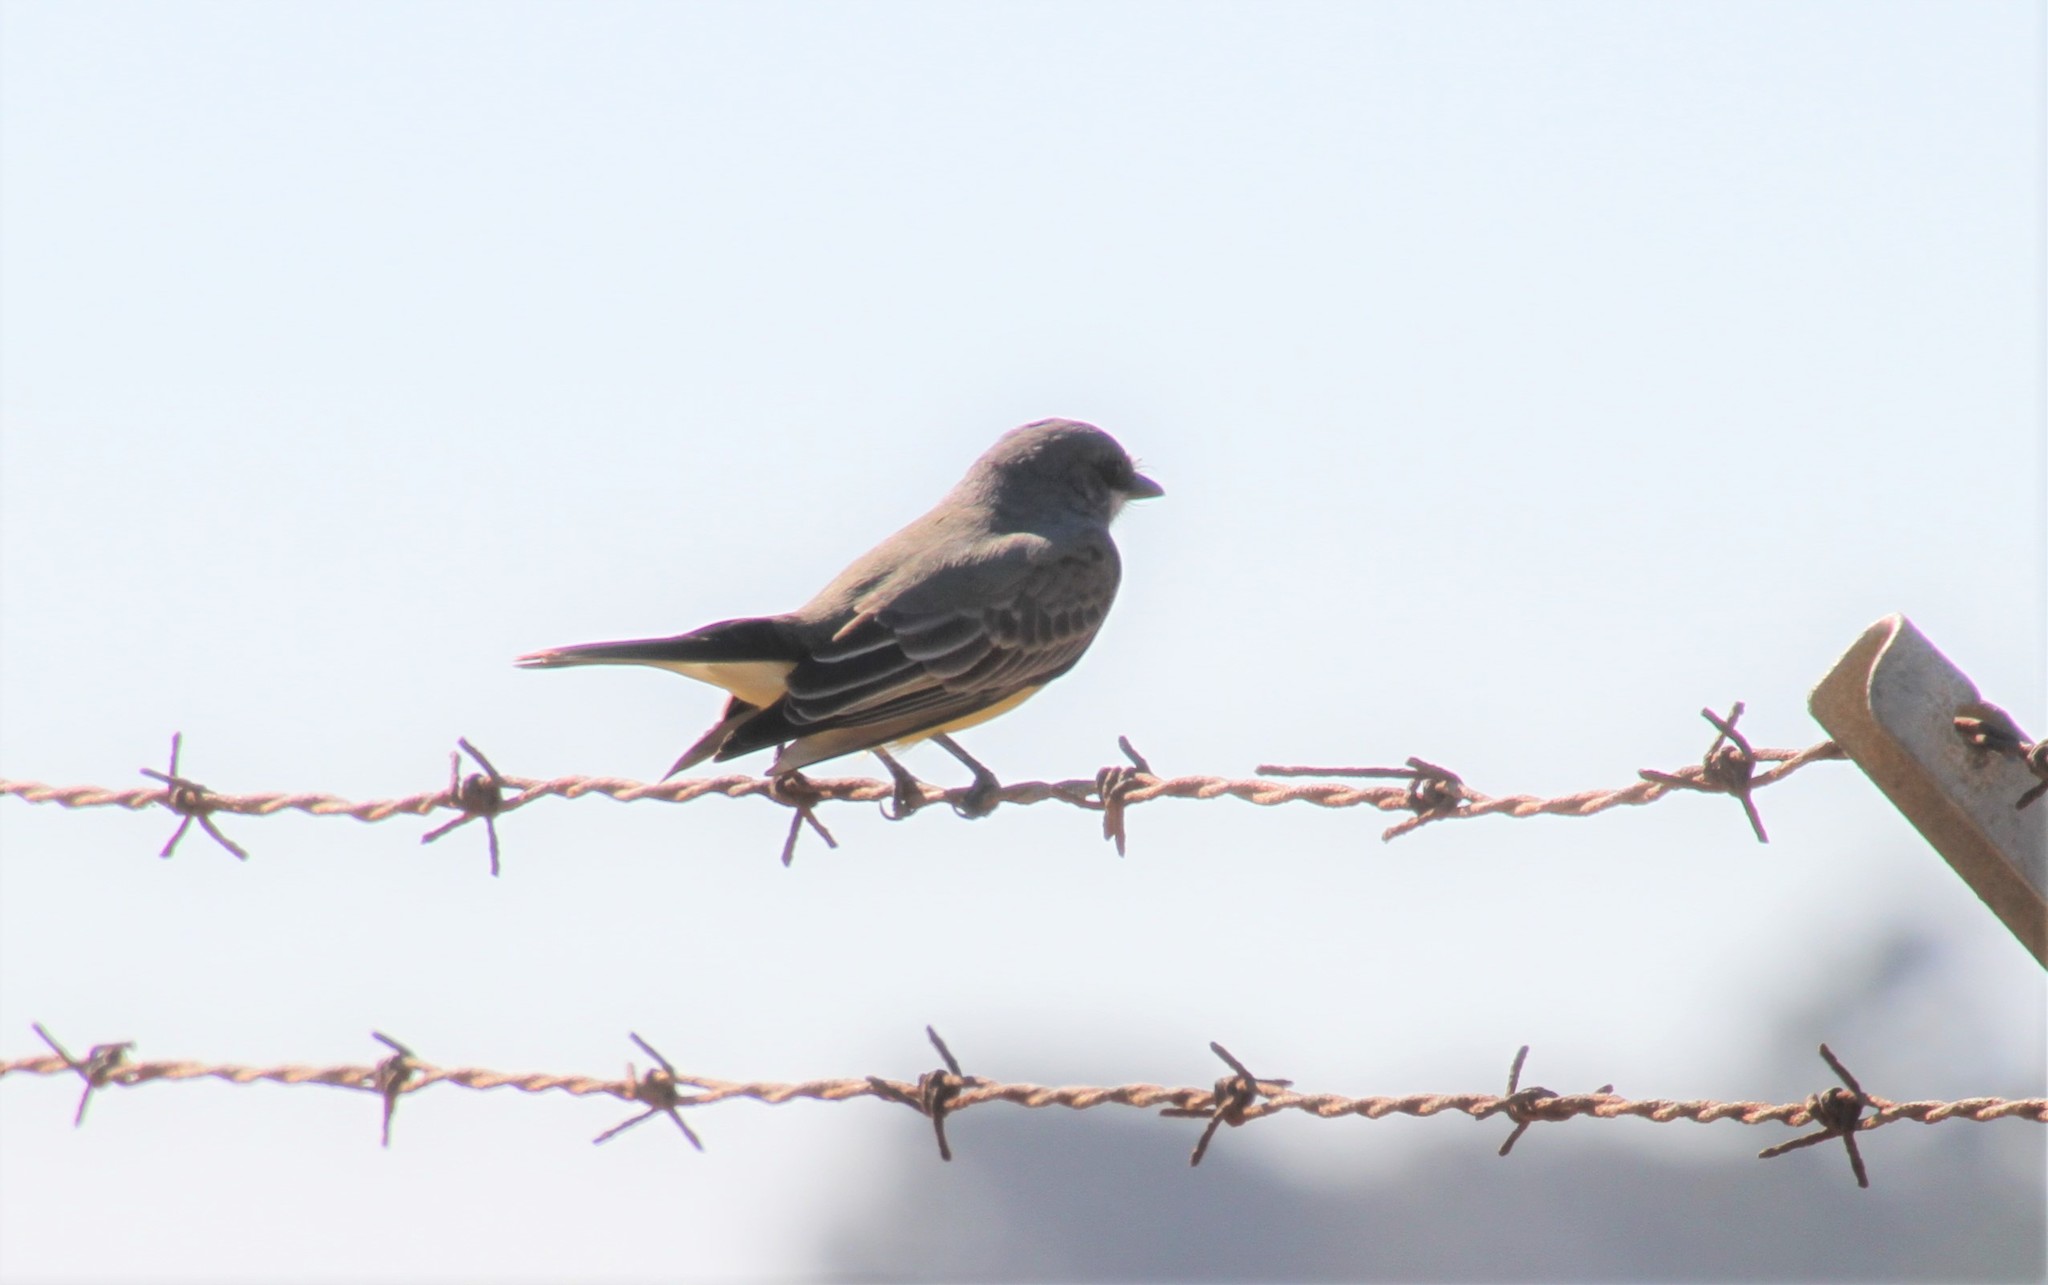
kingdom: Animalia
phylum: Chordata
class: Aves
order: Passeriformes
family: Tyrannidae
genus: Tyrannus
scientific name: Tyrannus vociferans
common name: Cassin's kingbird
